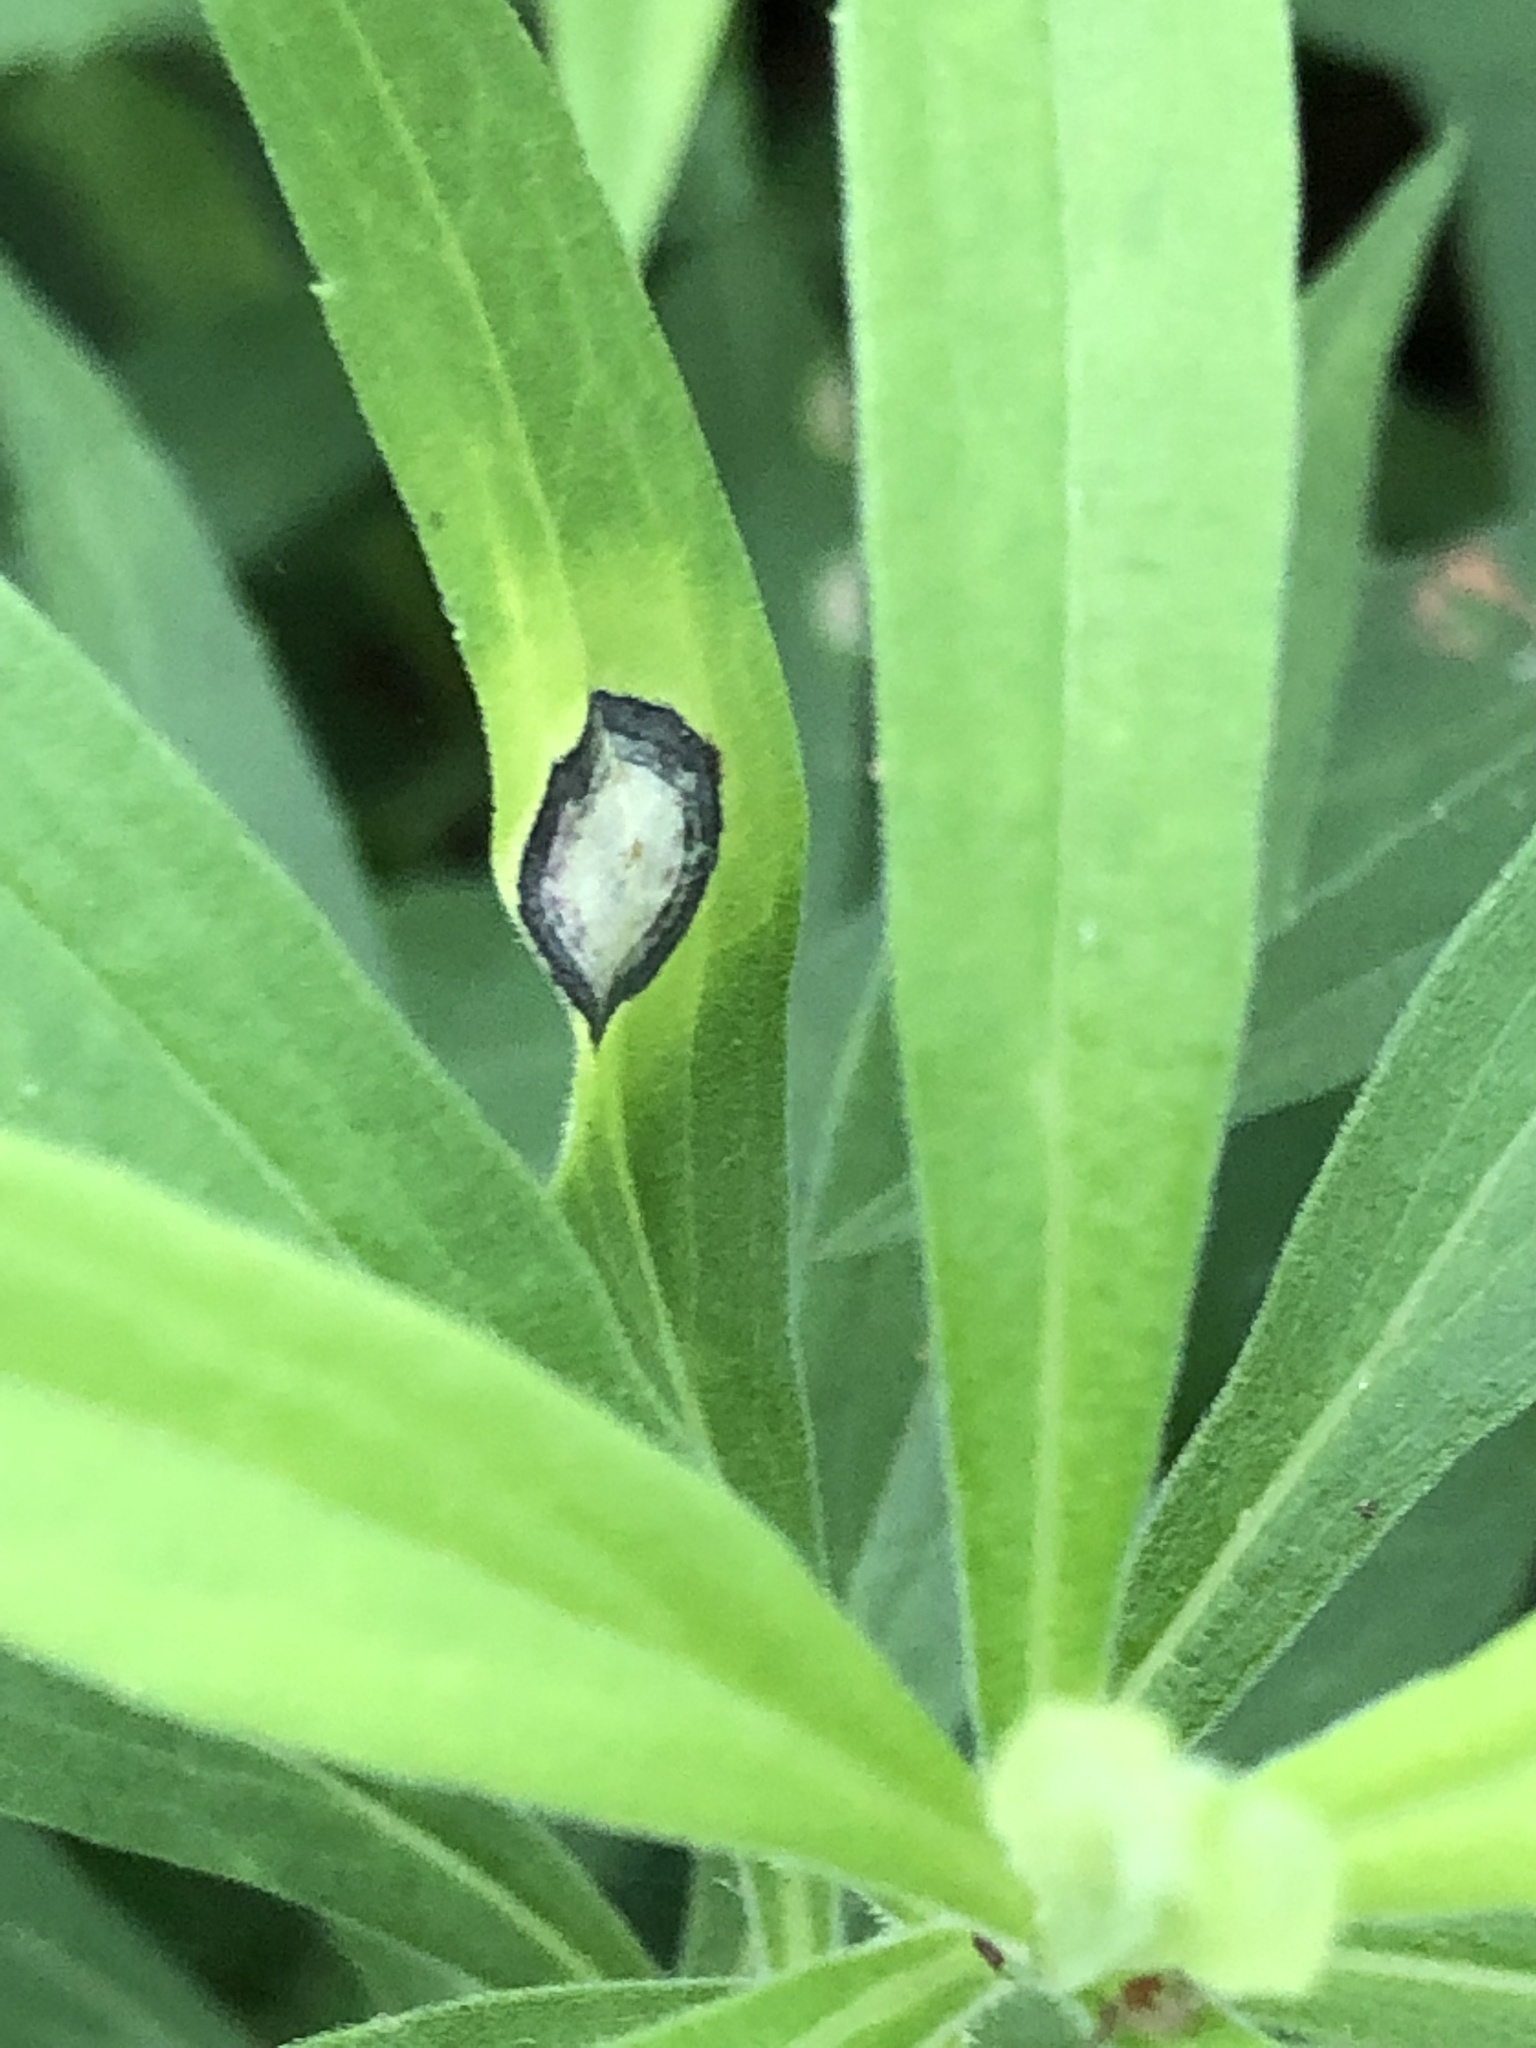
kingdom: Animalia
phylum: Arthropoda
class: Insecta
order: Diptera
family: Cecidomyiidae
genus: Asteromyia
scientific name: Asteromyia carbonifera
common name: Carbonifera goldenrod gall midge
